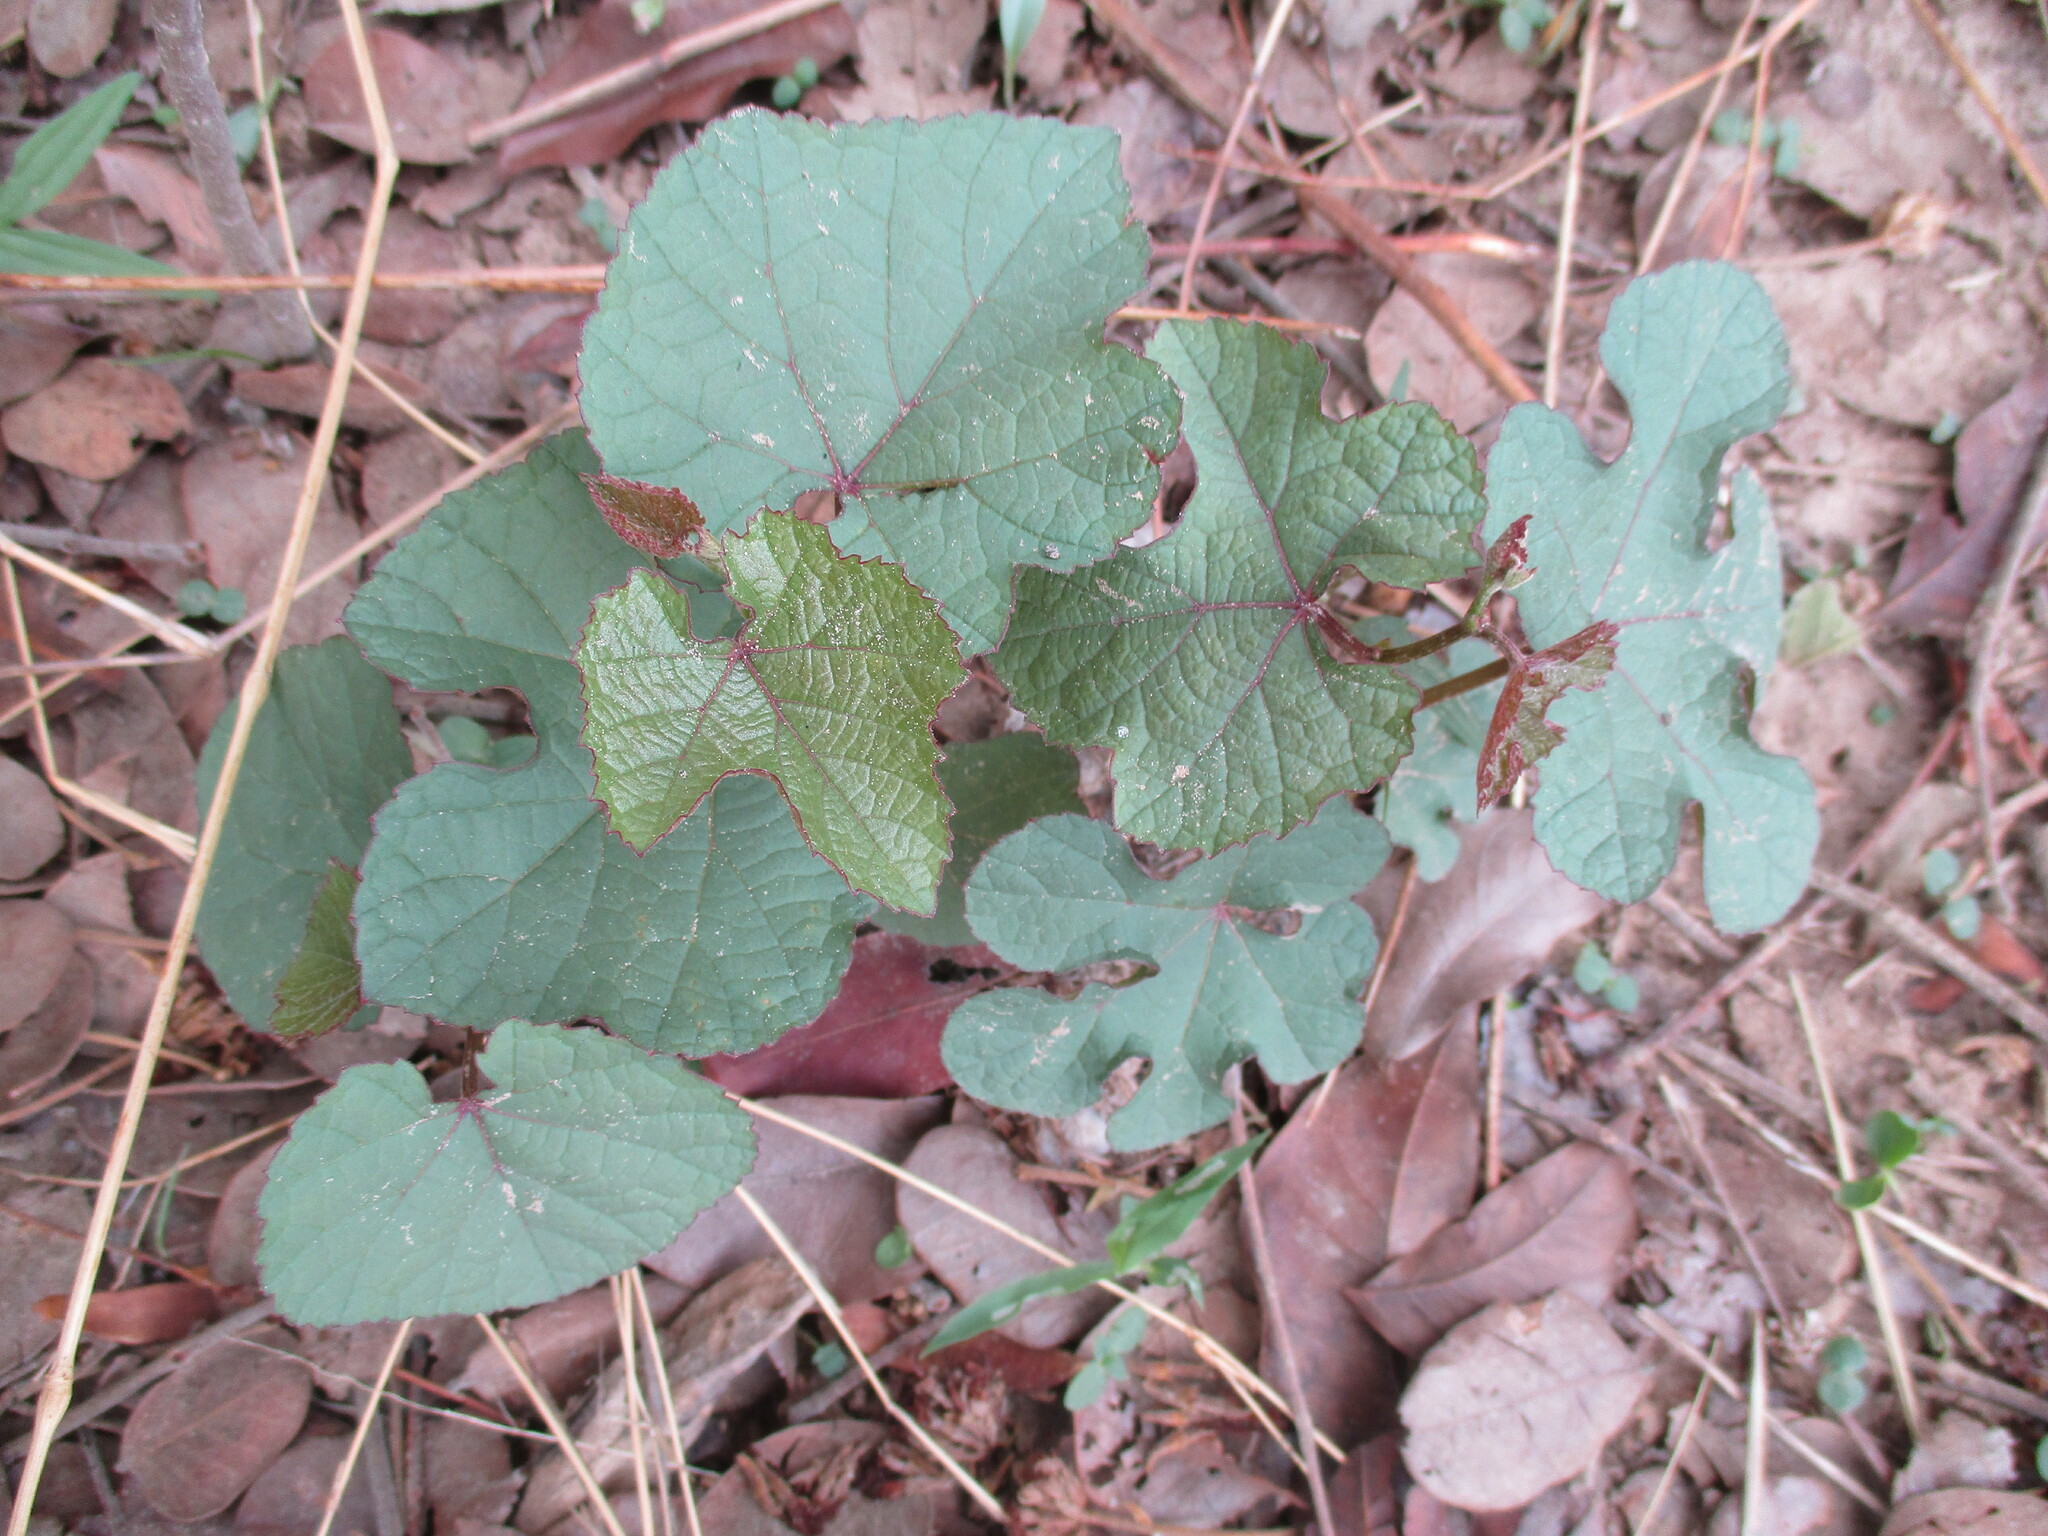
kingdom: Plantae
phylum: Tracheophyta
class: Magnoliopsida
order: Vitales
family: Vitaceae
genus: Ampelocissus
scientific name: Ampelocissus africana
